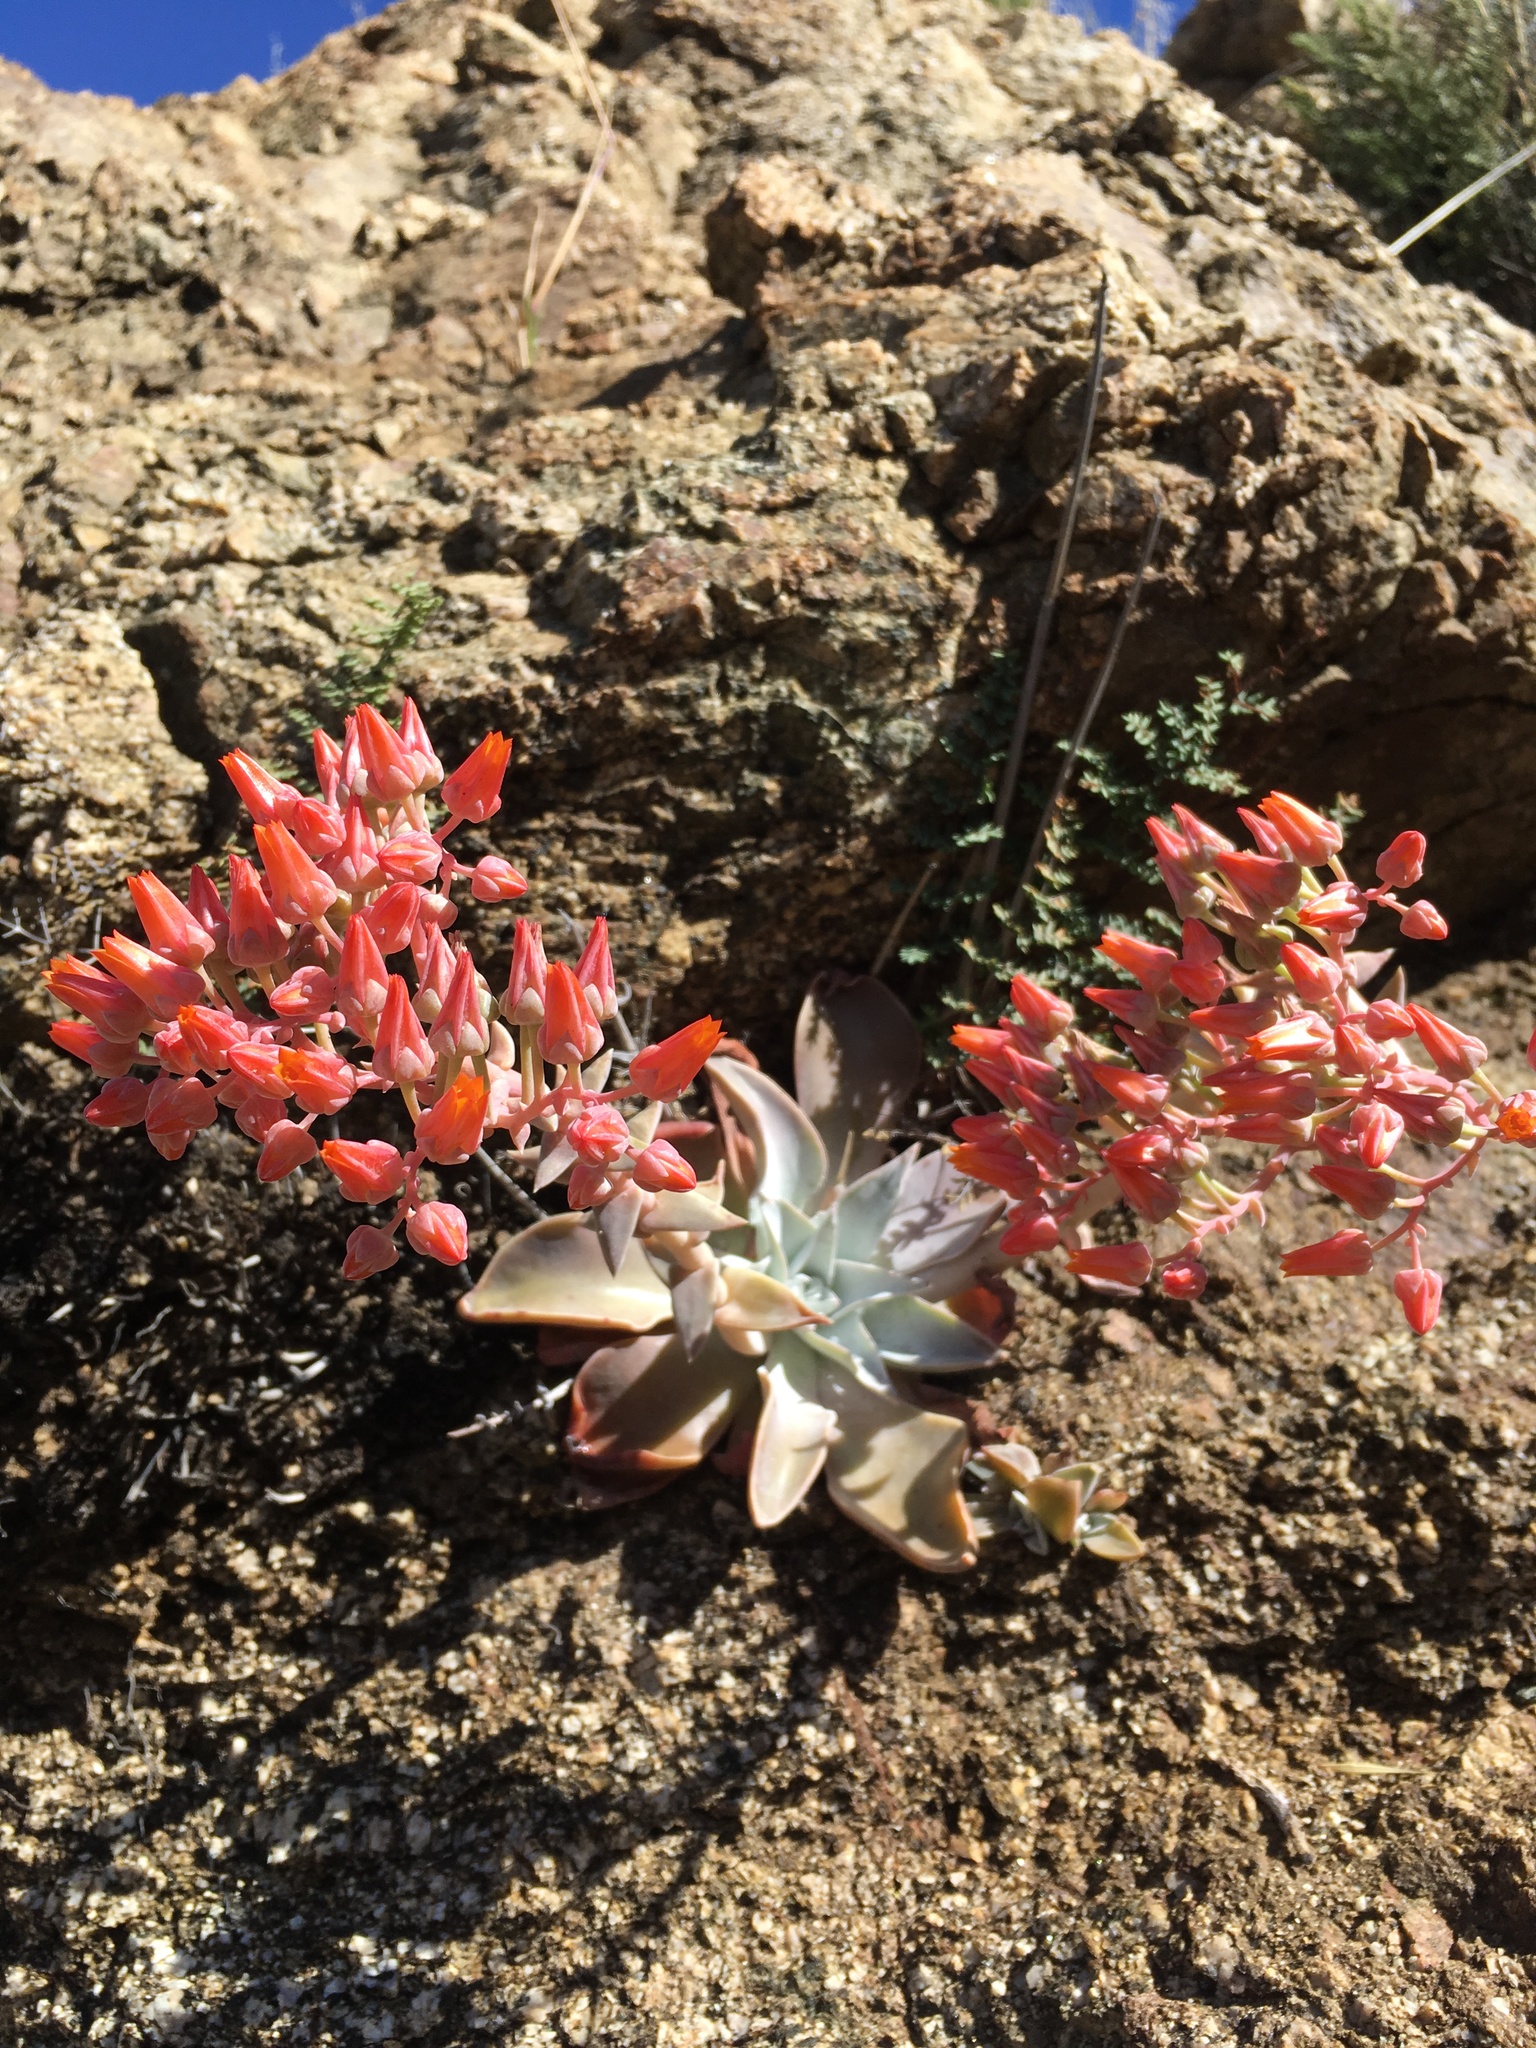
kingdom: Plantae
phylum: Tracheophyta
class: Magnoliopsida
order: Saxifragales
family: Crassulaceae
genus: Dudleya
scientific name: Dudleya cymosa
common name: Canyon dudleya
